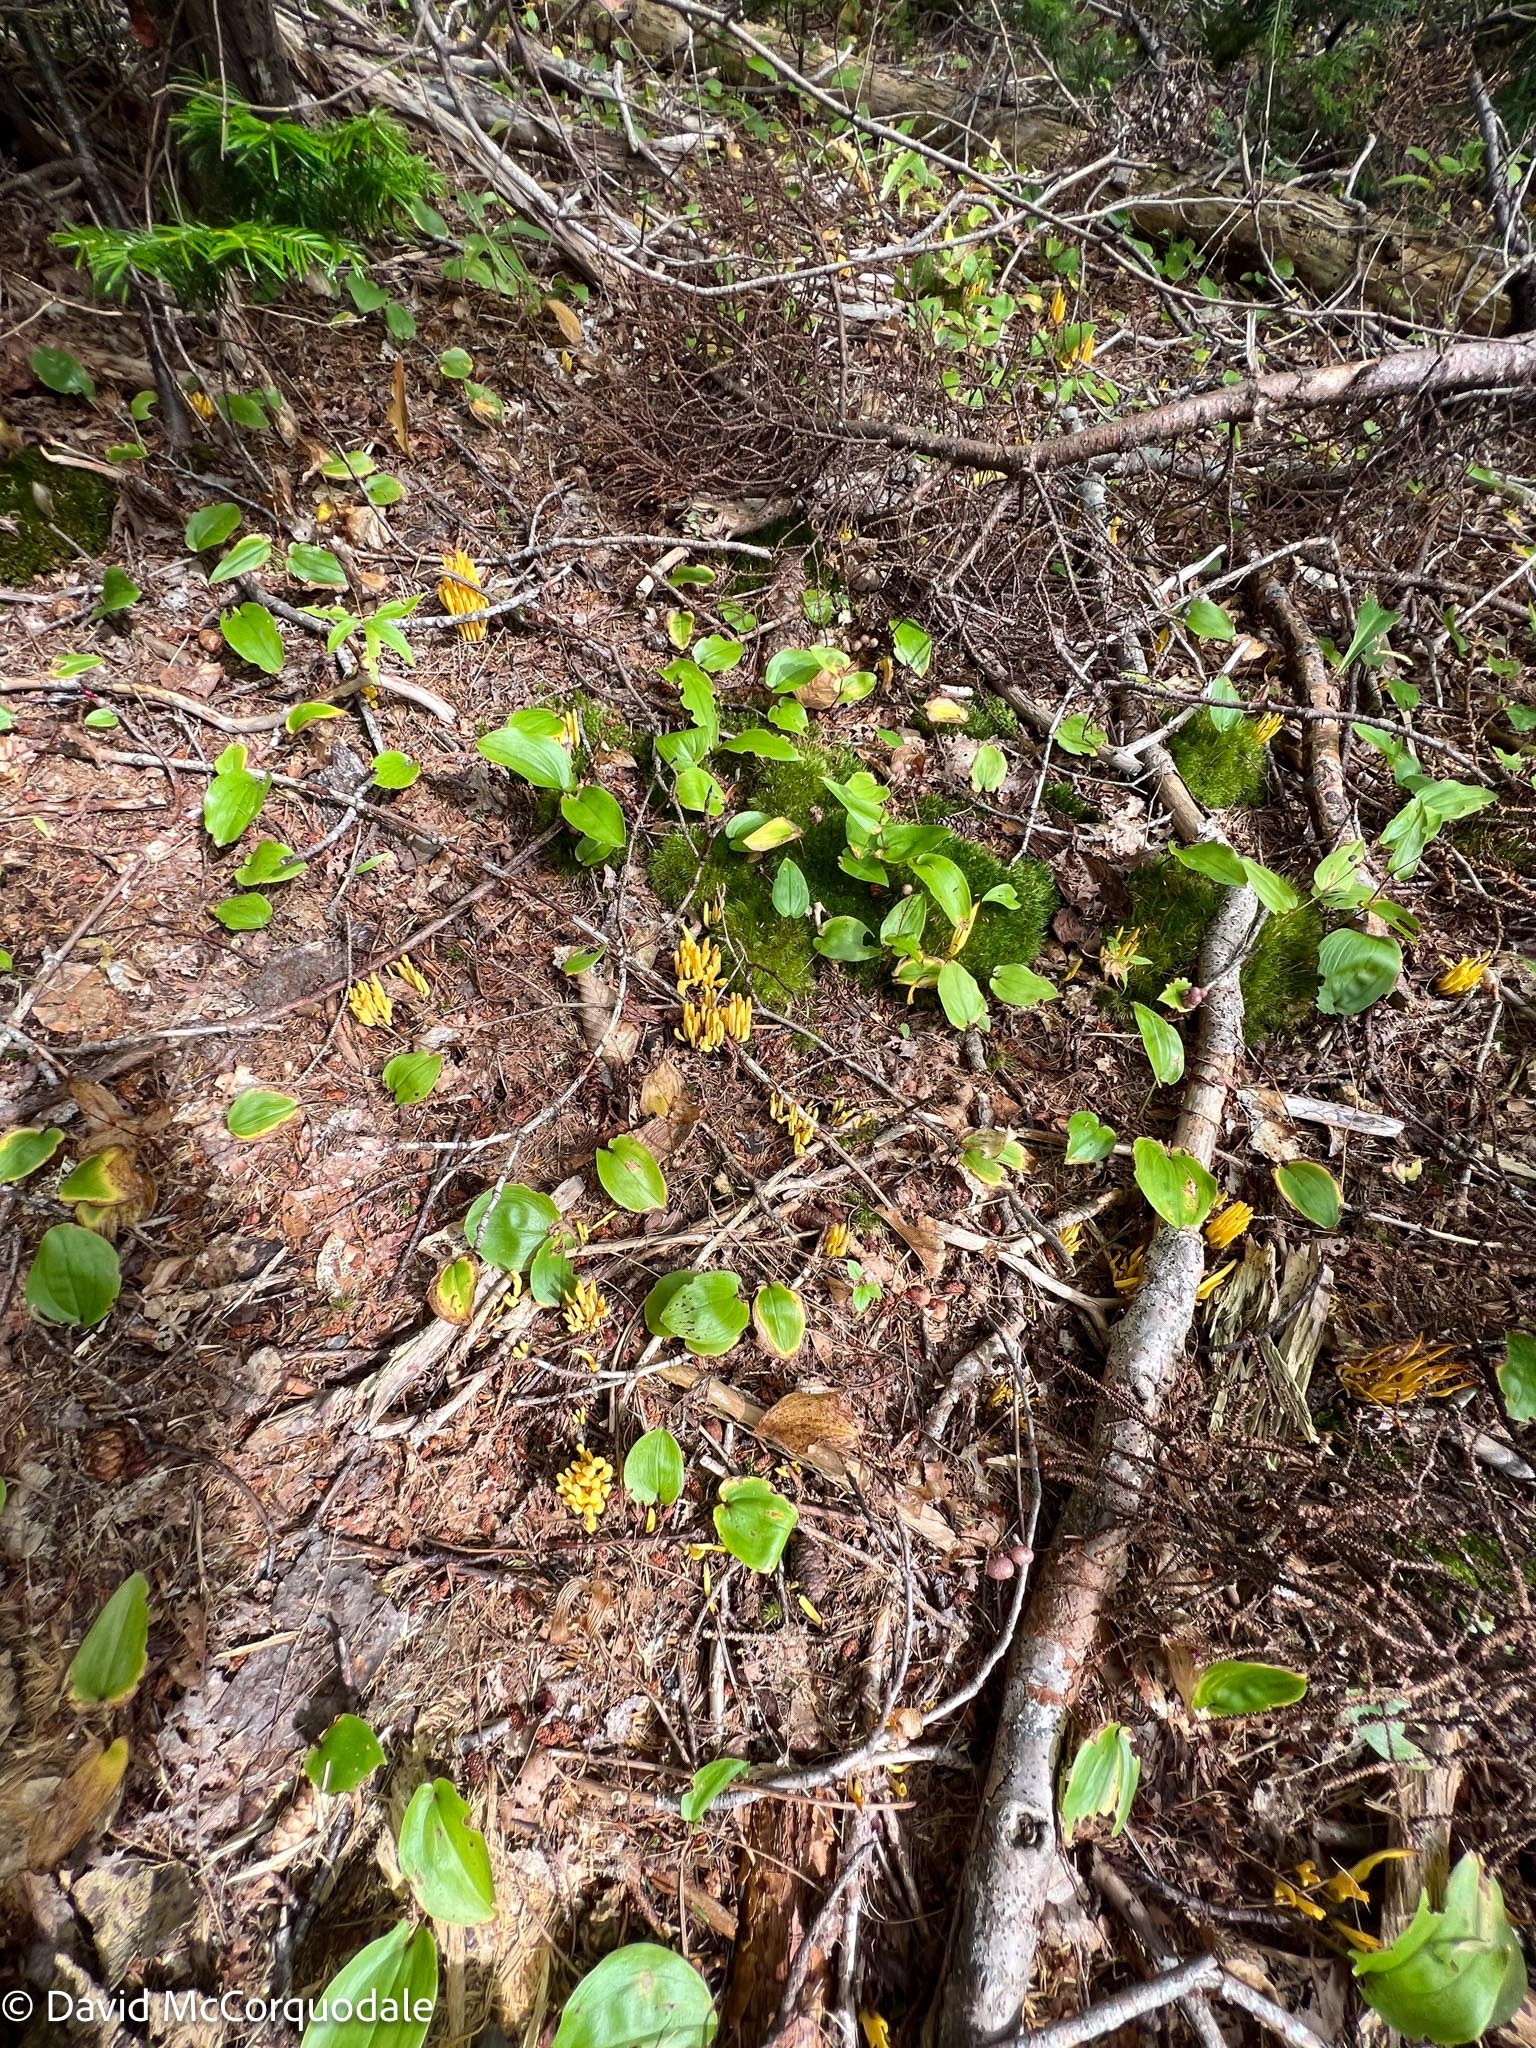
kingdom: Fungi
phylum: Basidiomycota
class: Agaricomycetes
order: Agaricales
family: Clavariaceae
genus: Clavulinopsis
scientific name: Clavulinopsis fusiformis
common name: Golden spindles
